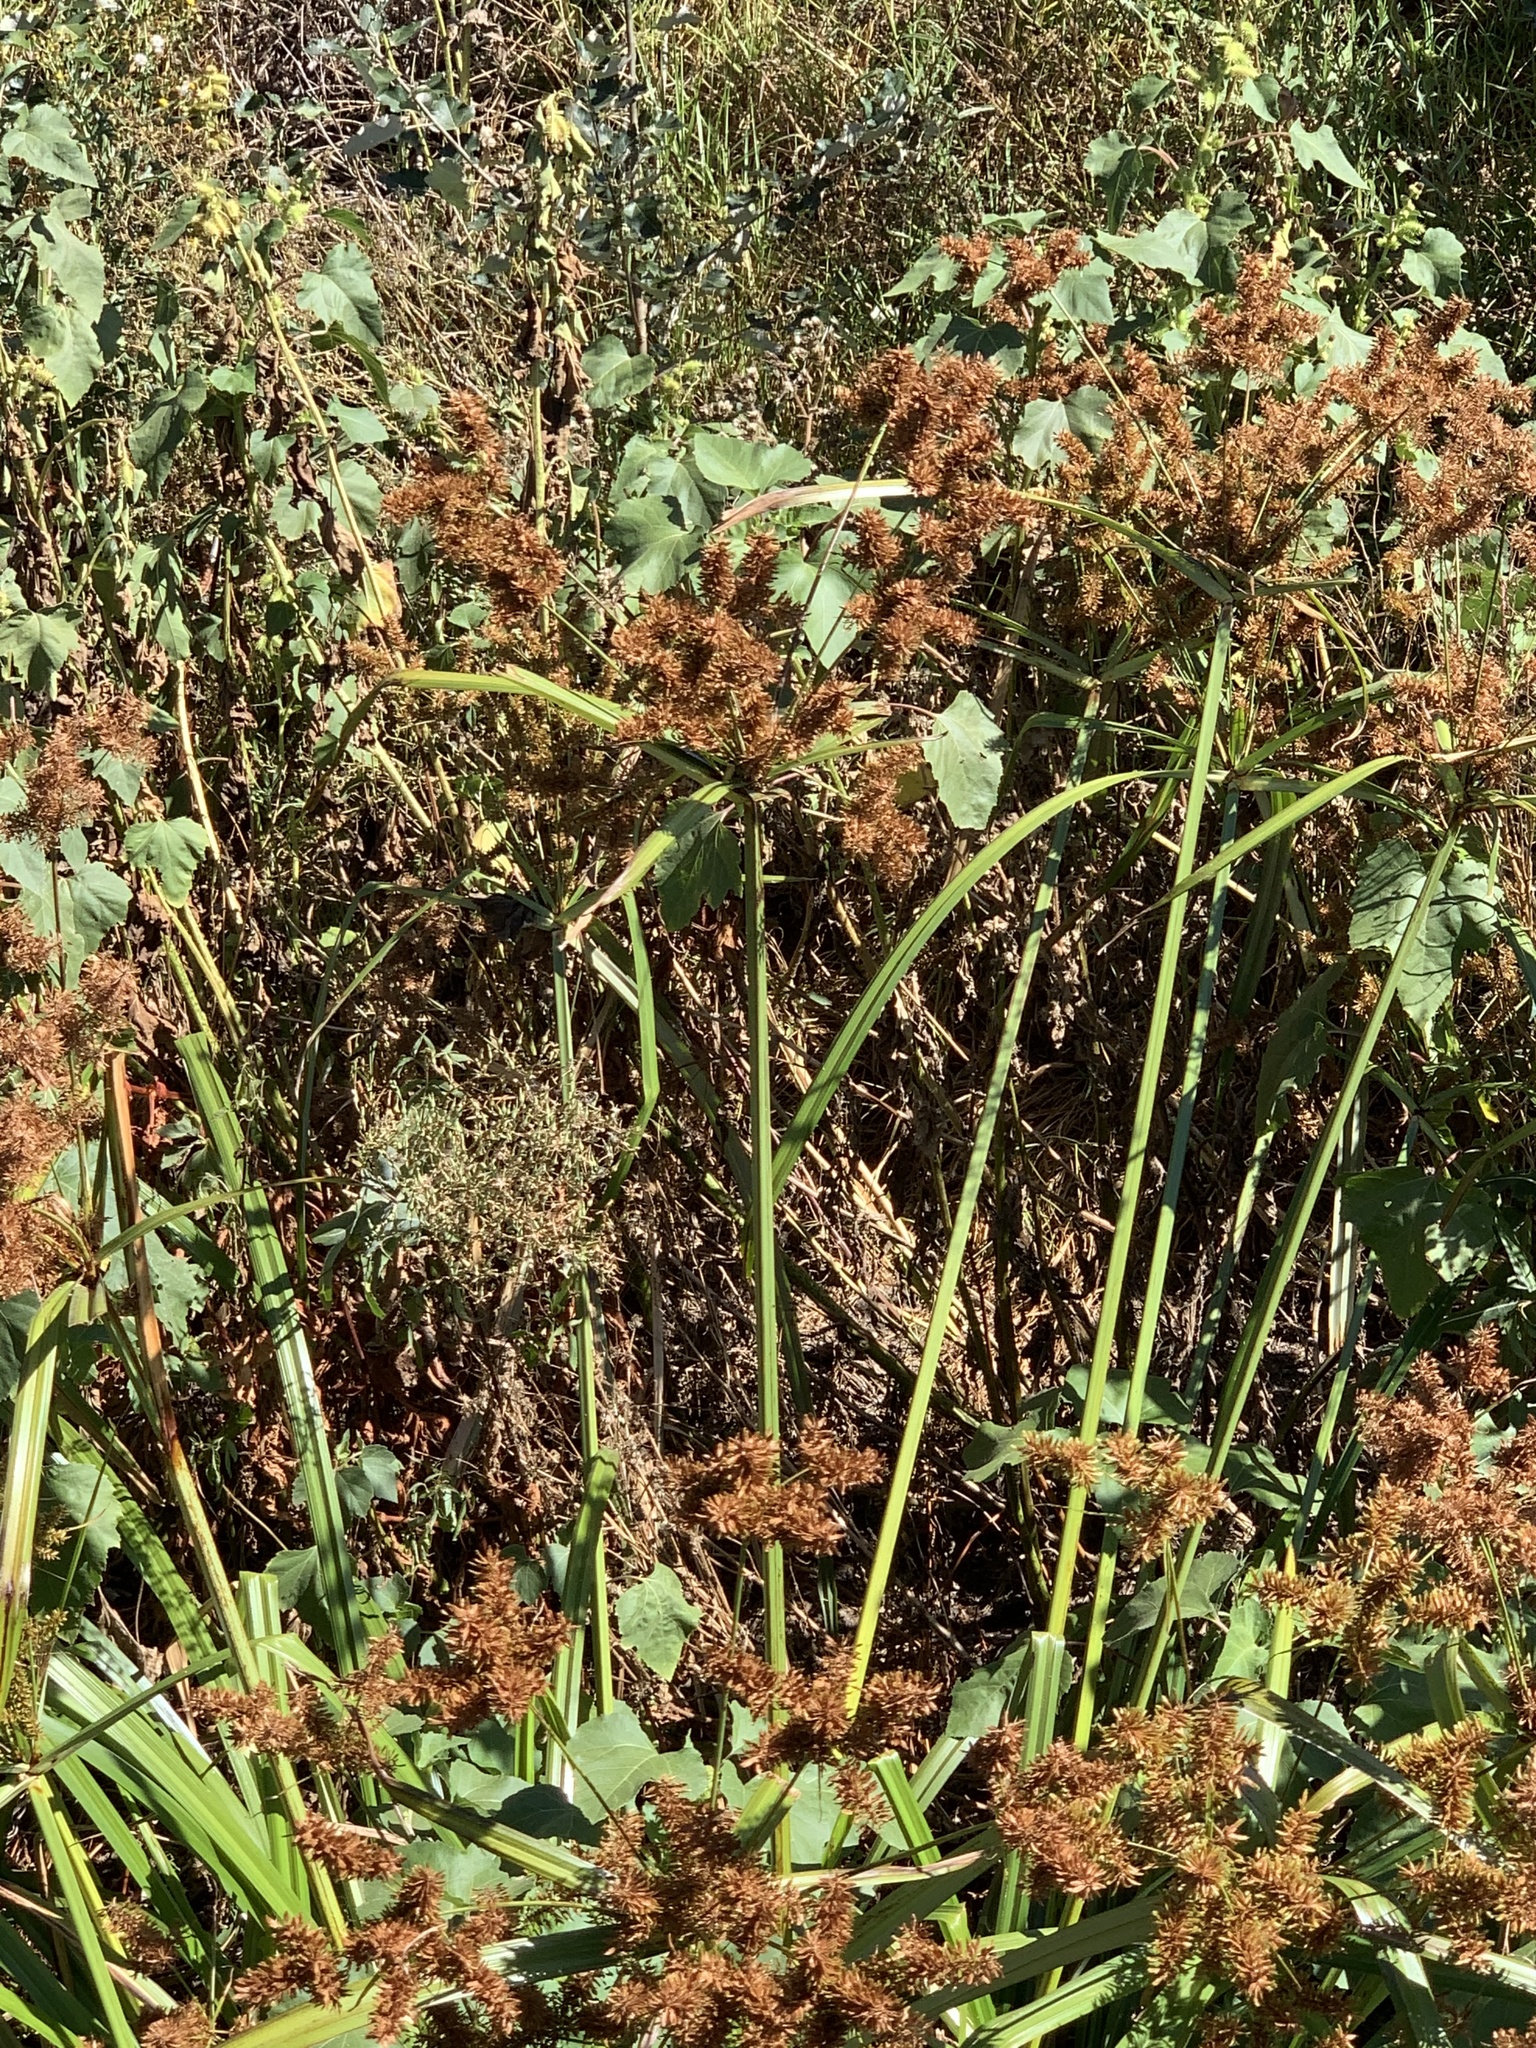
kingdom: Plantae
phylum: Tracheophyta
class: Liliopsida
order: Poales
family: Cyperaceae
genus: Cyperus
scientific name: Cyperus dives
